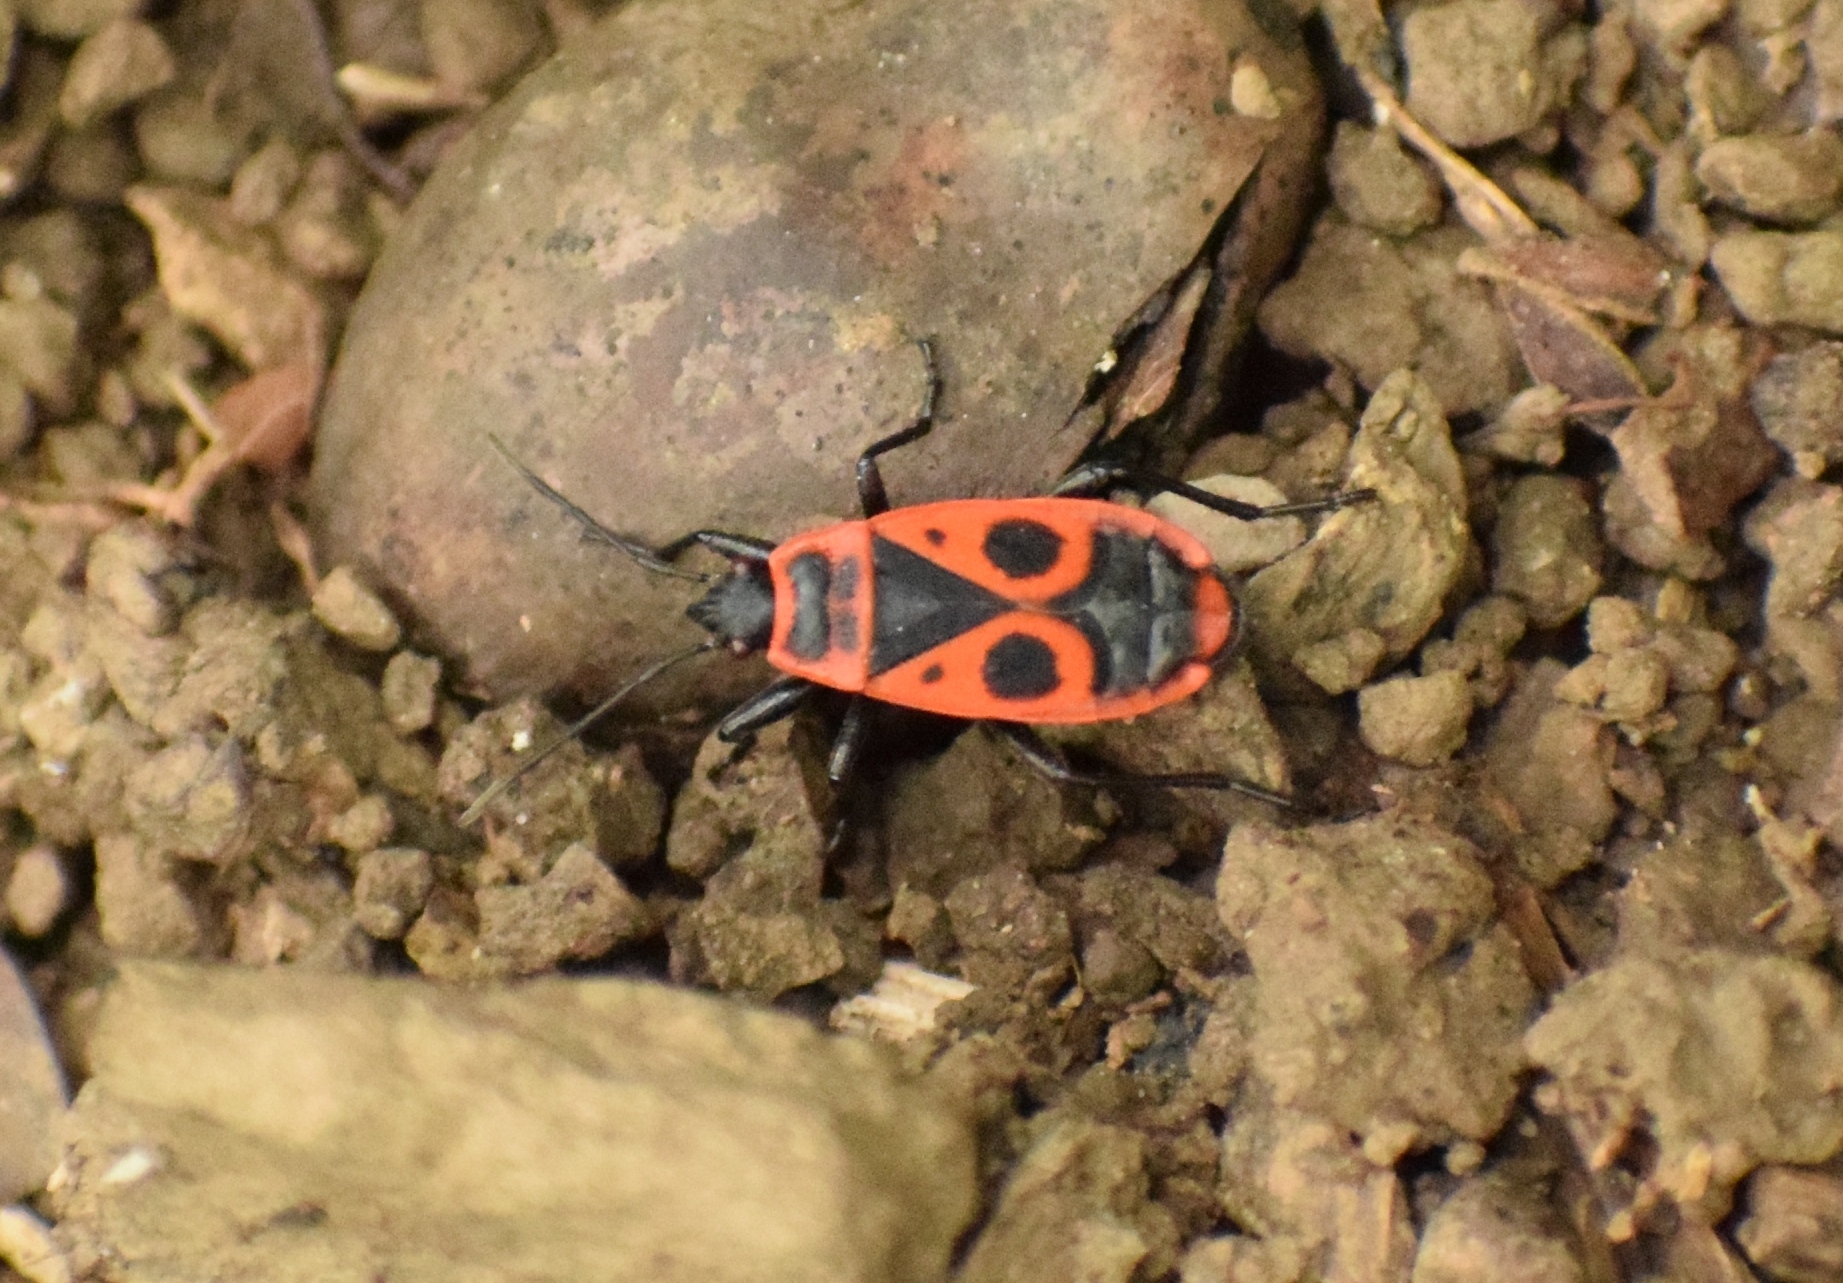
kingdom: Animalia
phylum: Arthropoda
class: Insecta
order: Hemiptera
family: Pyrrhocoridae
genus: Pyrrhocoris
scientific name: Pyrrhocoris apterus
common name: Firebug
